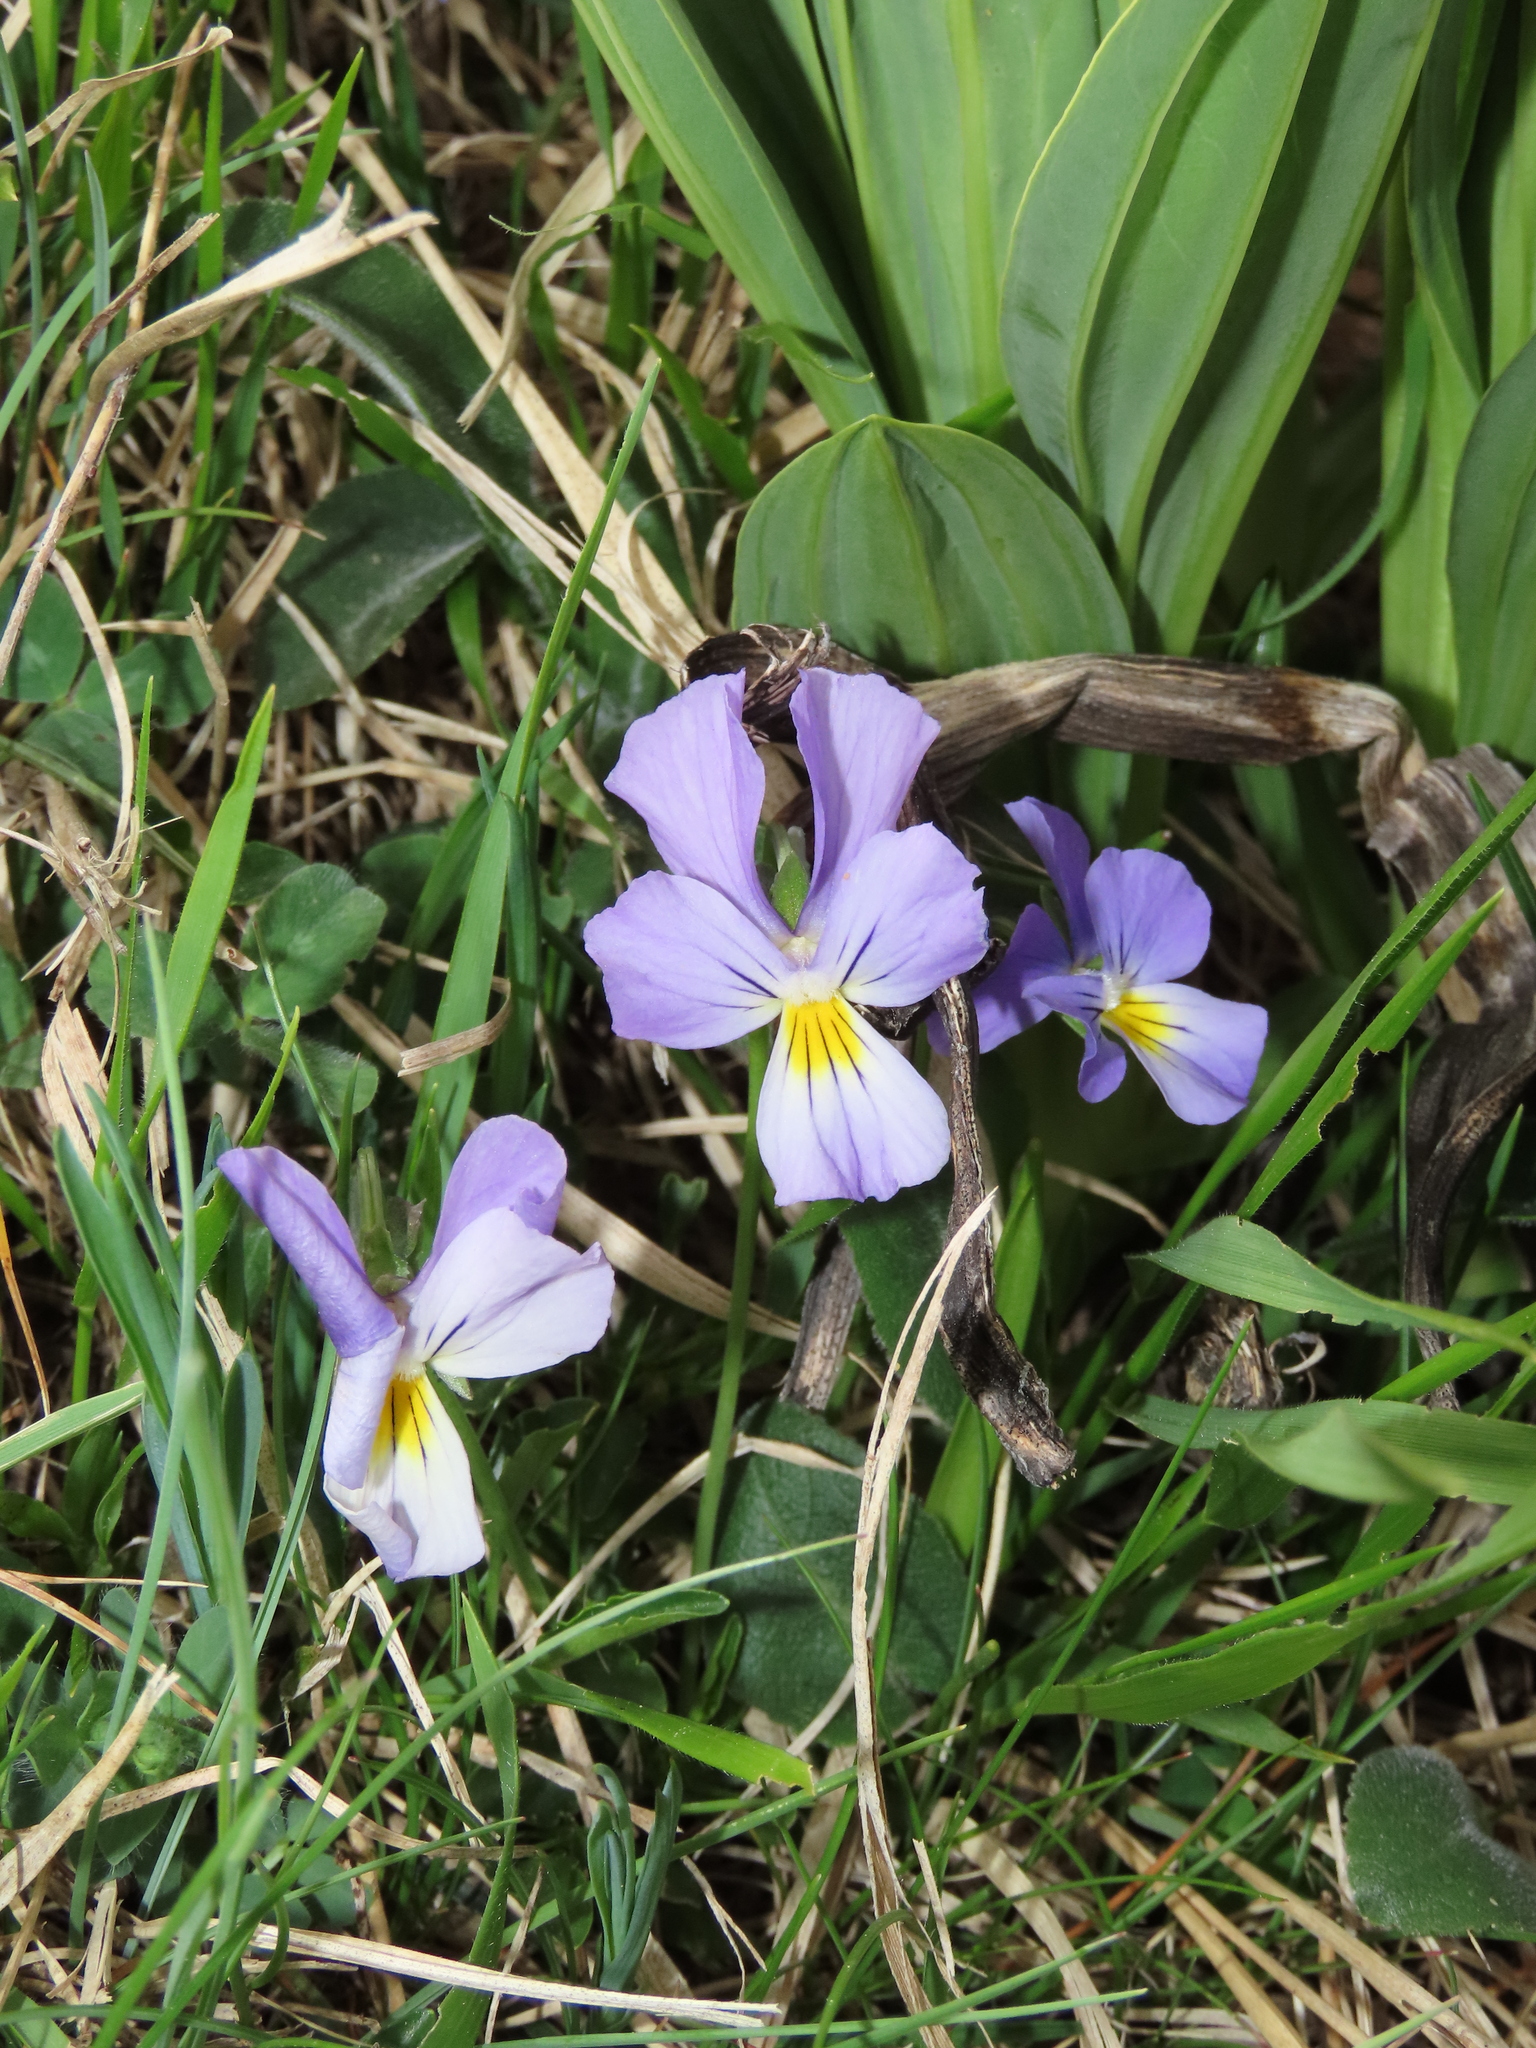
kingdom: Plantae
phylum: Tracheophyta
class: Magnoliopsida
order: Malpighiales
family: Violaceae
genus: Viola
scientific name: Viola eugeniae
